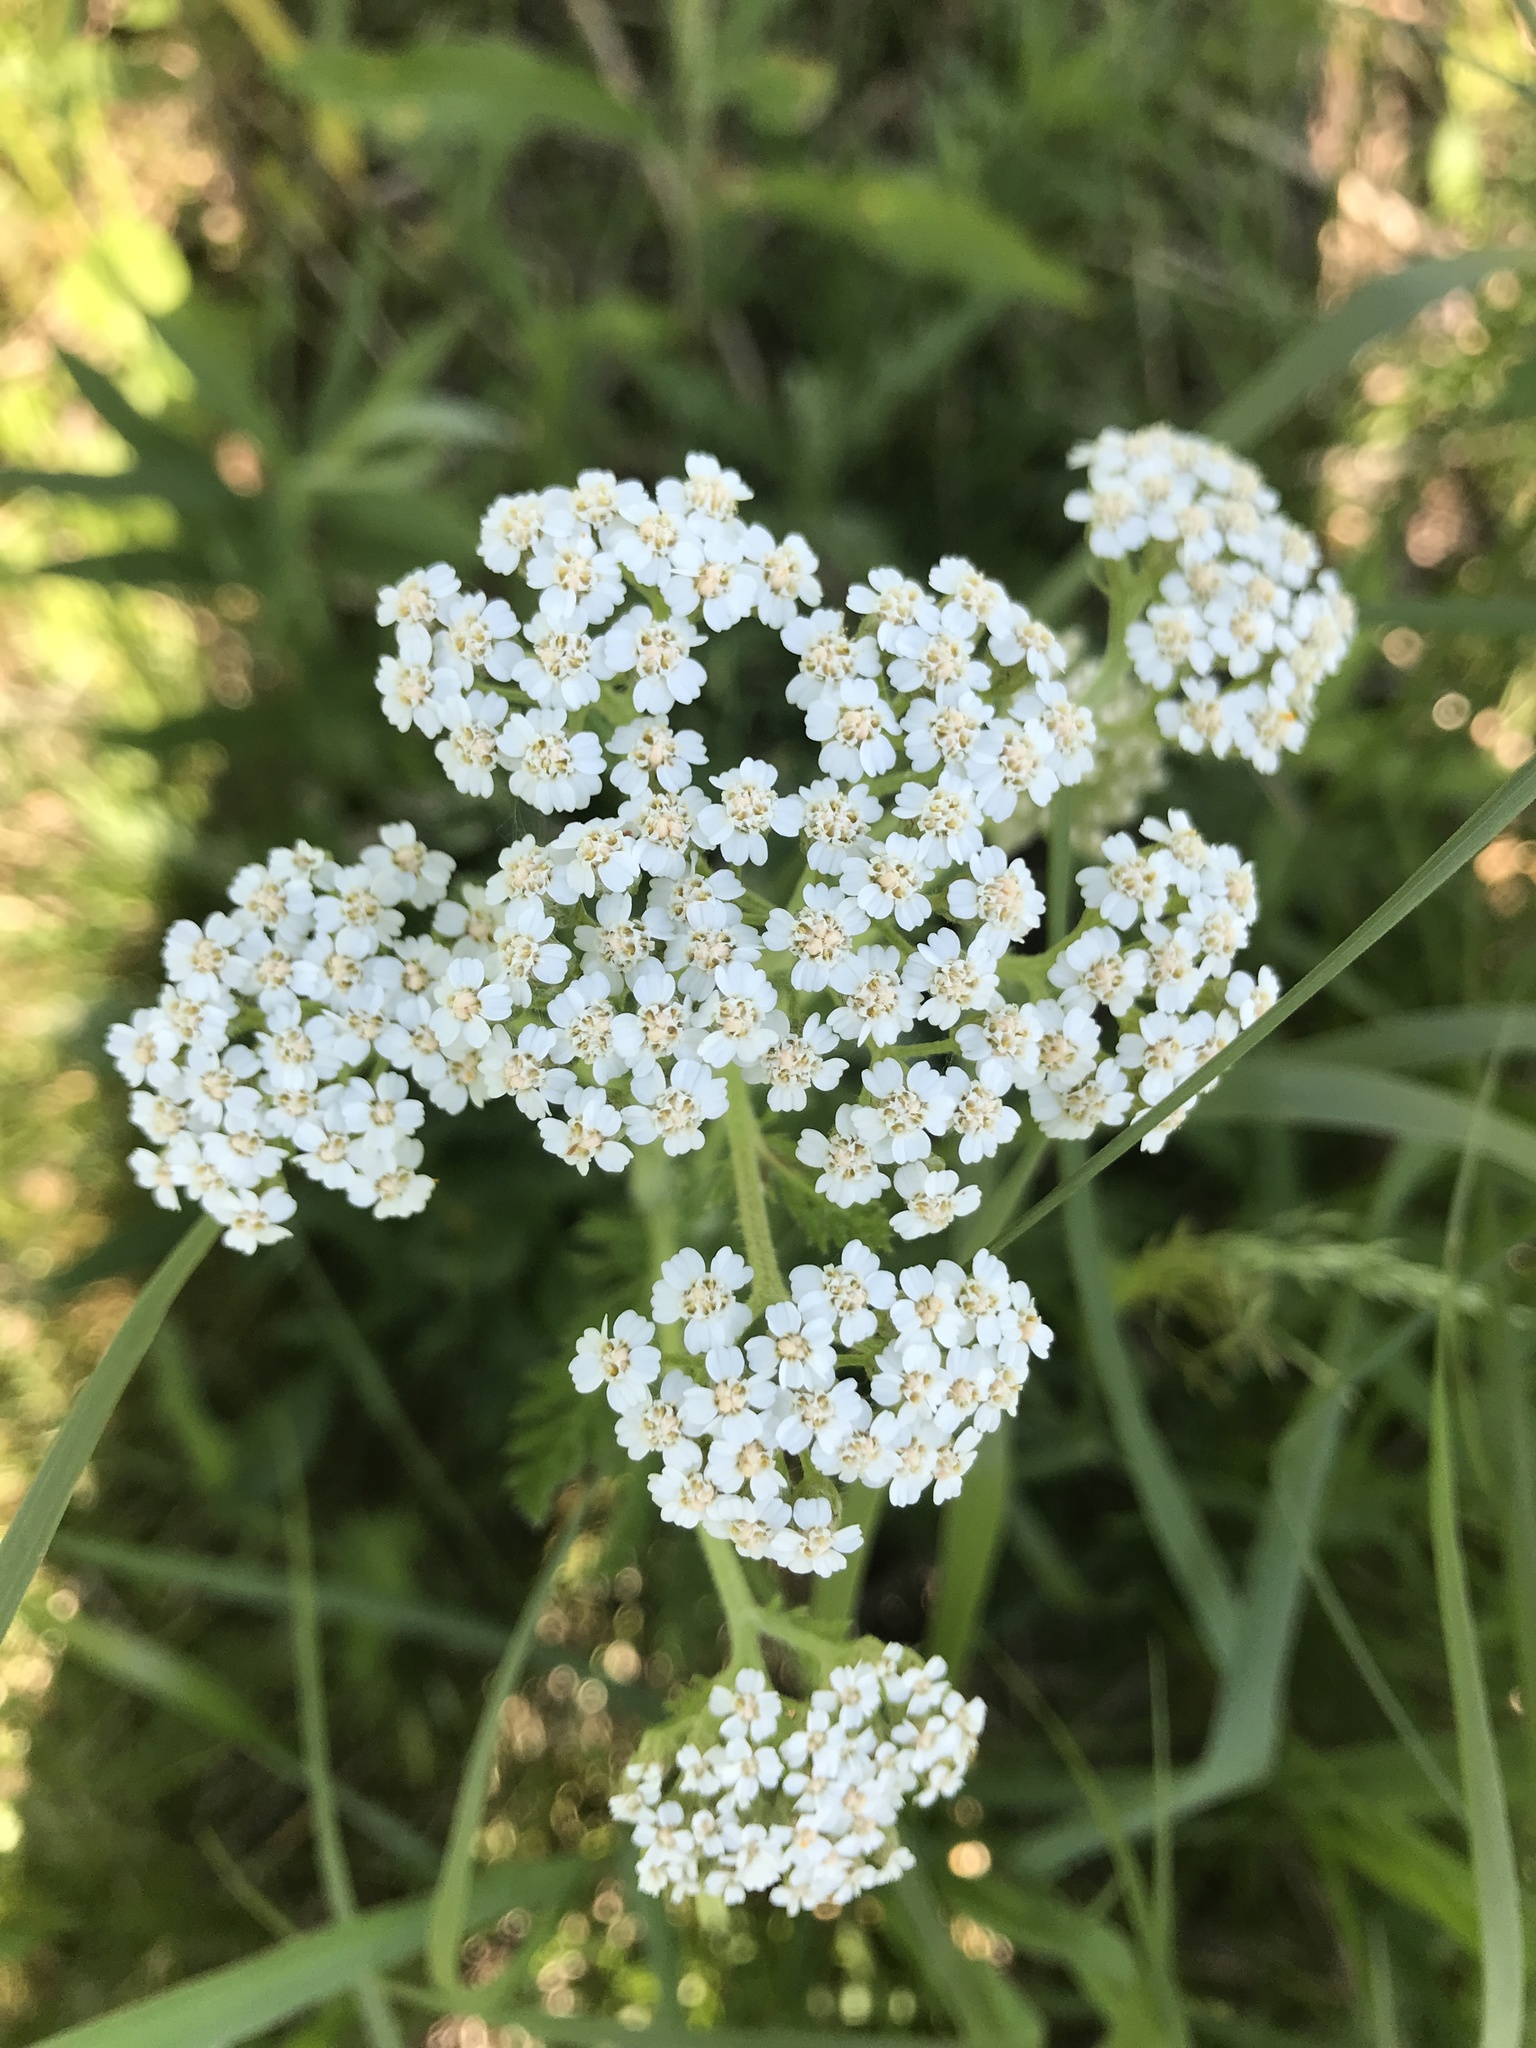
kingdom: Plantae
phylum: Tracheophyta
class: Magnoliopsida
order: Asterales
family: Asteraceae
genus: Achillea
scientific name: Achillea millefolium
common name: Yarrow
